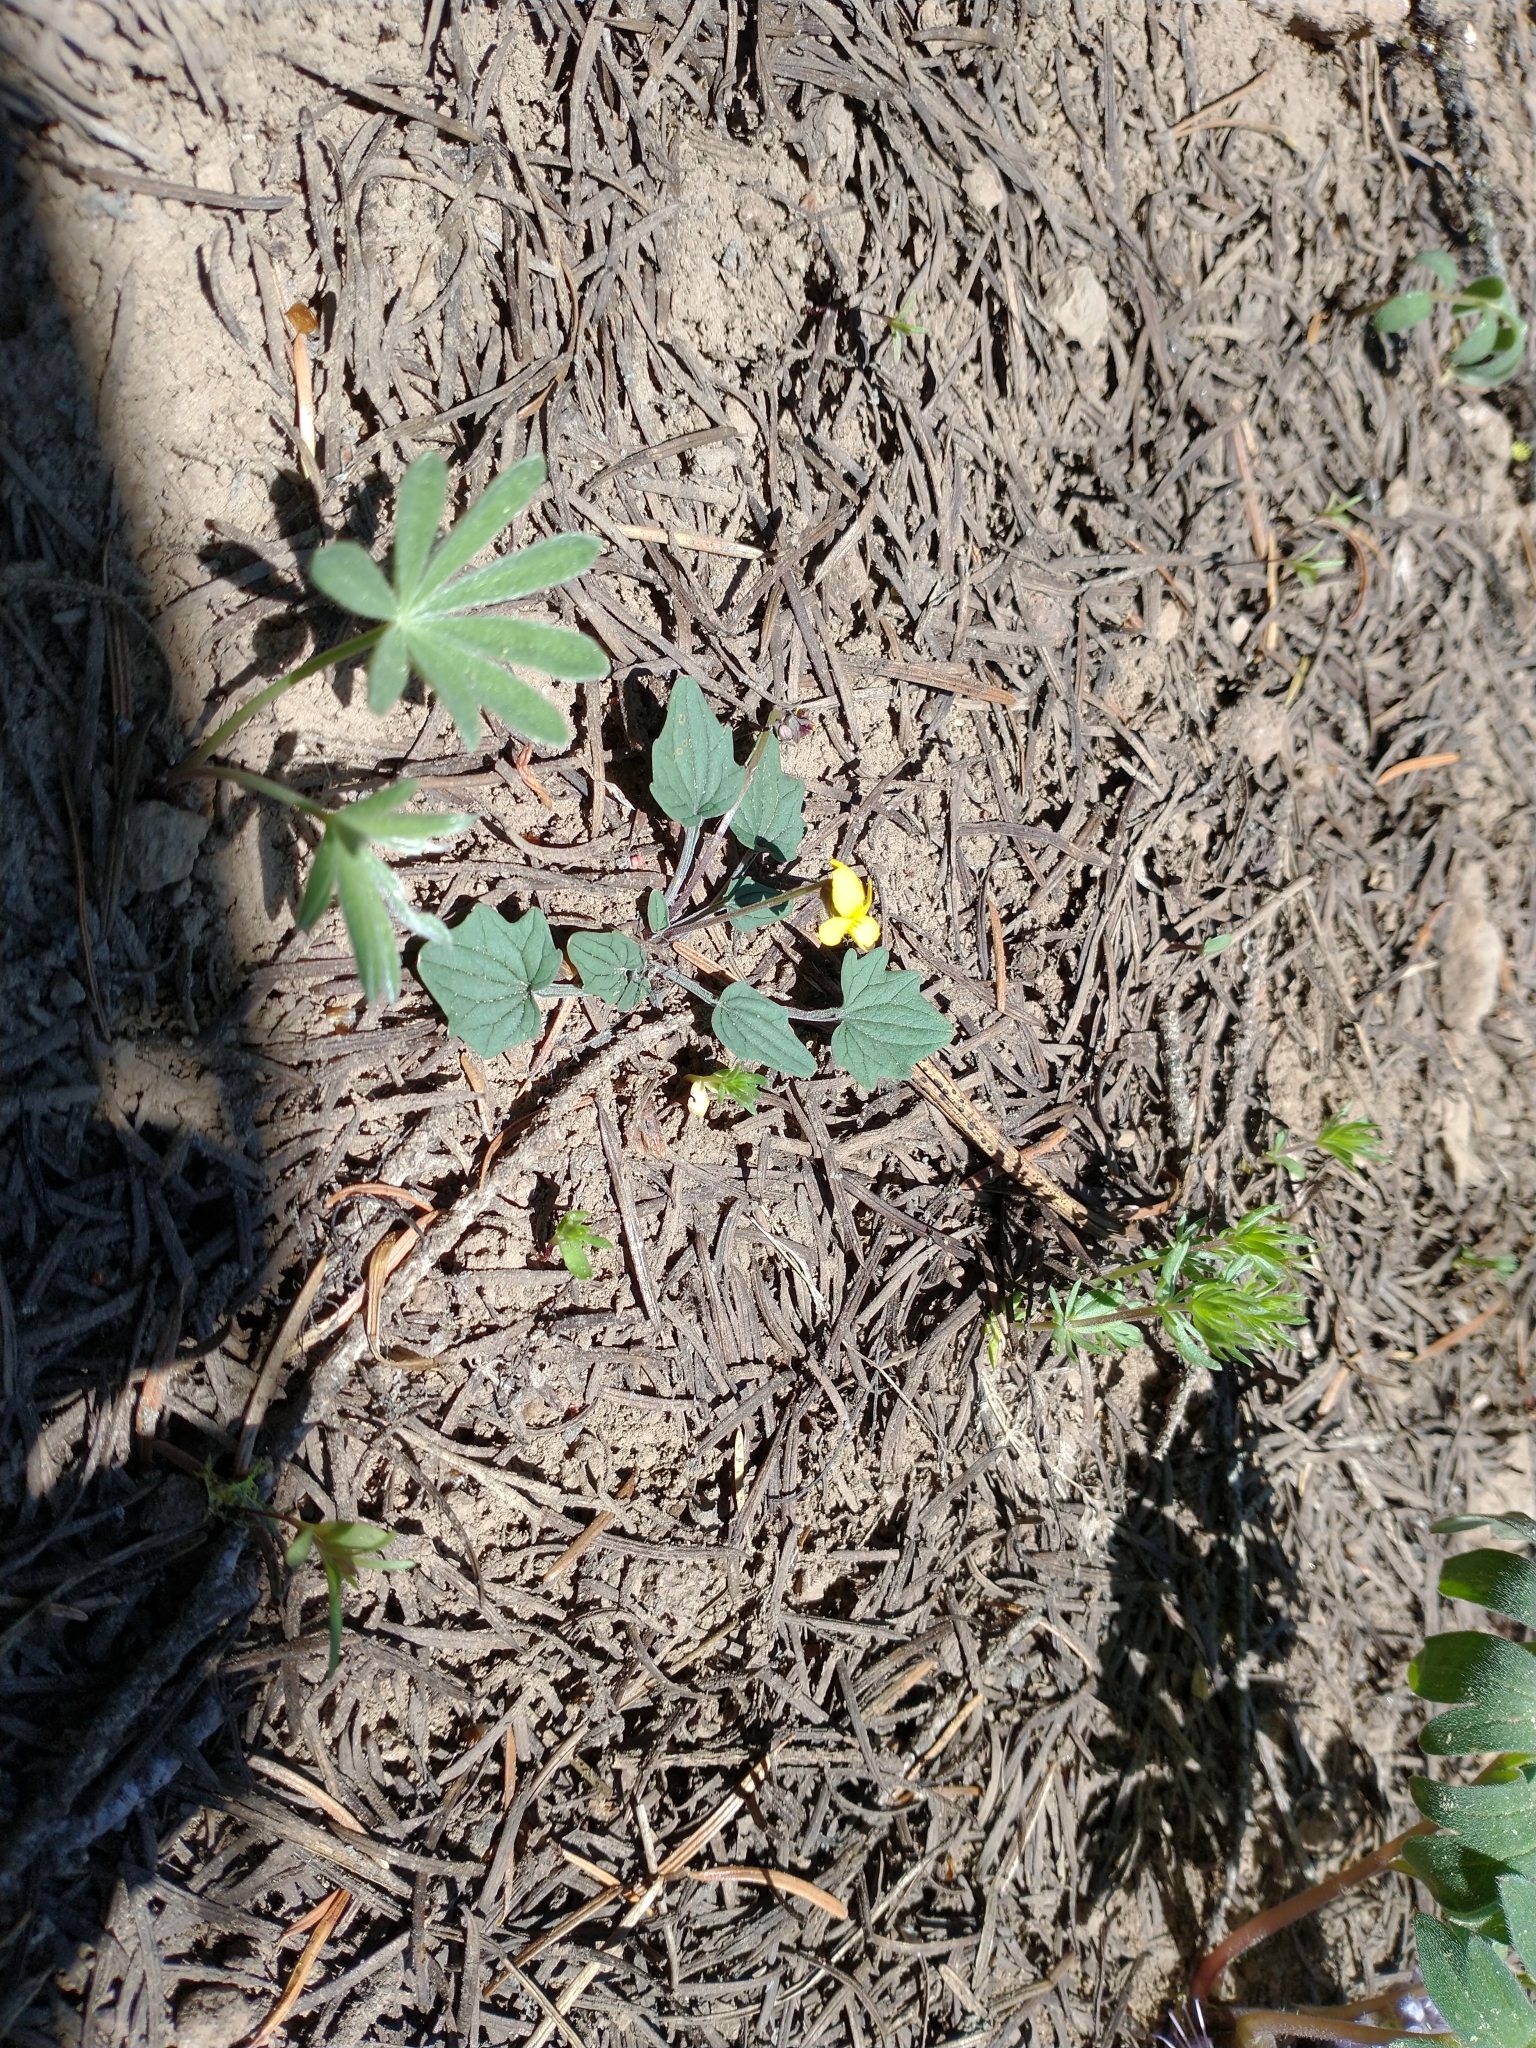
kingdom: Plantae
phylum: Tracheophyta
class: Magnoliopsida
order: Malpighiales
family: Violaceae
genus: Viola
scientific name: Viola purpurea
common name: Pine violet
